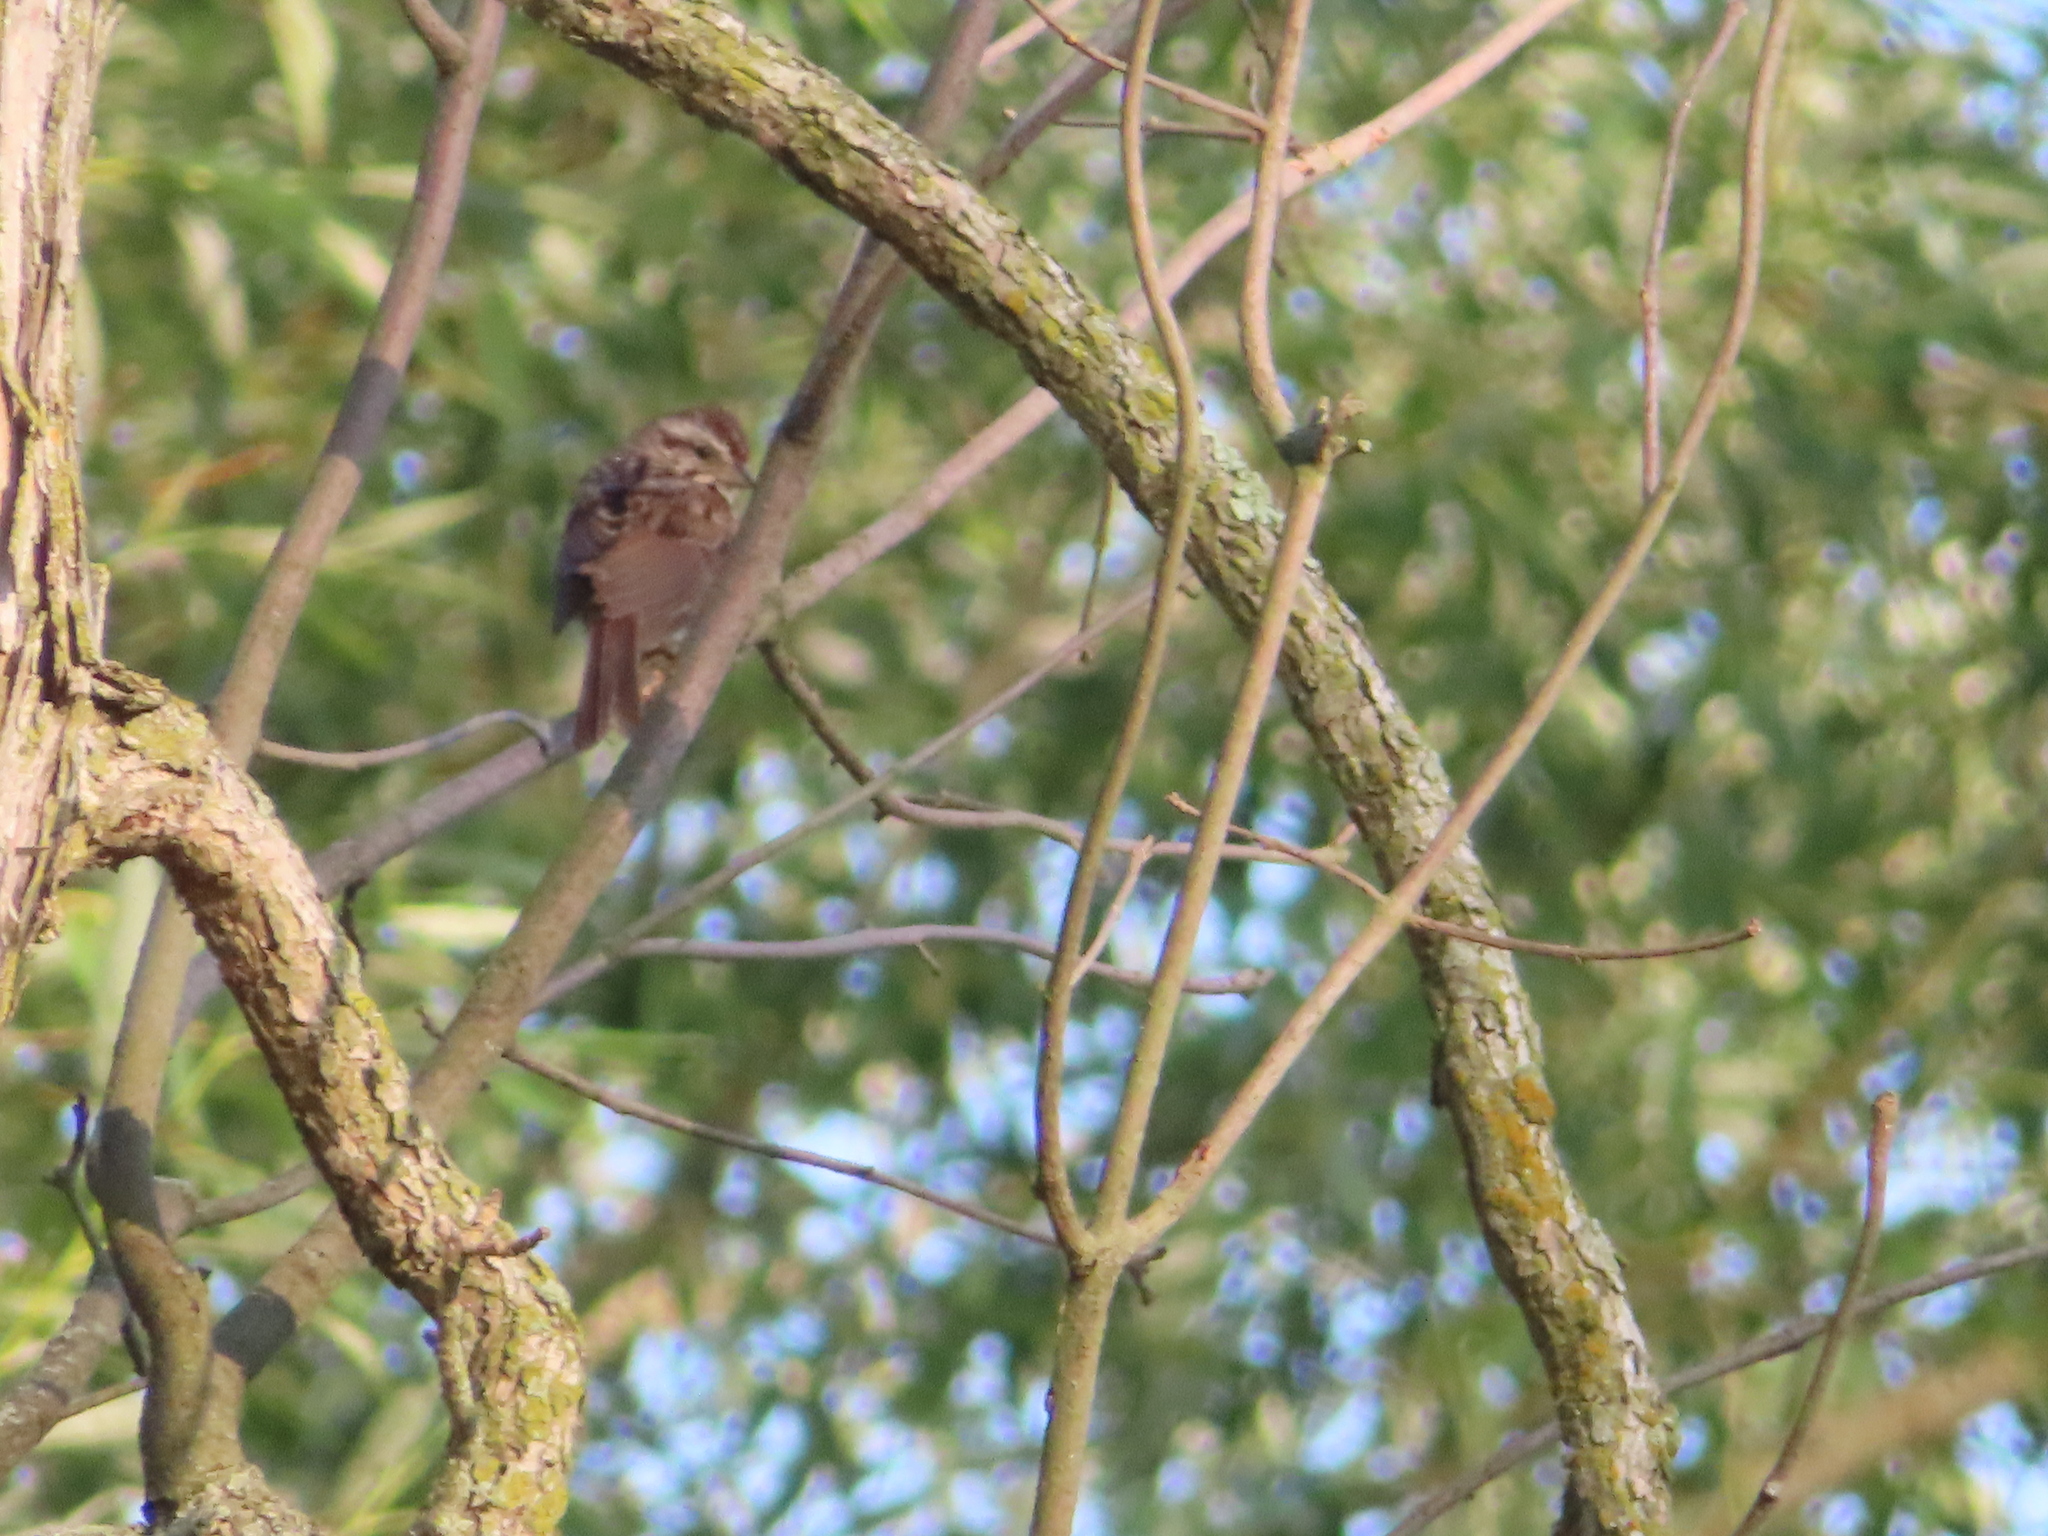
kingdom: Animalia
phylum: Chordata
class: Aves
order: Passeriformes
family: Passerellidae
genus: Melospiza
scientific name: Melospiza melodia
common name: Song sparrow
